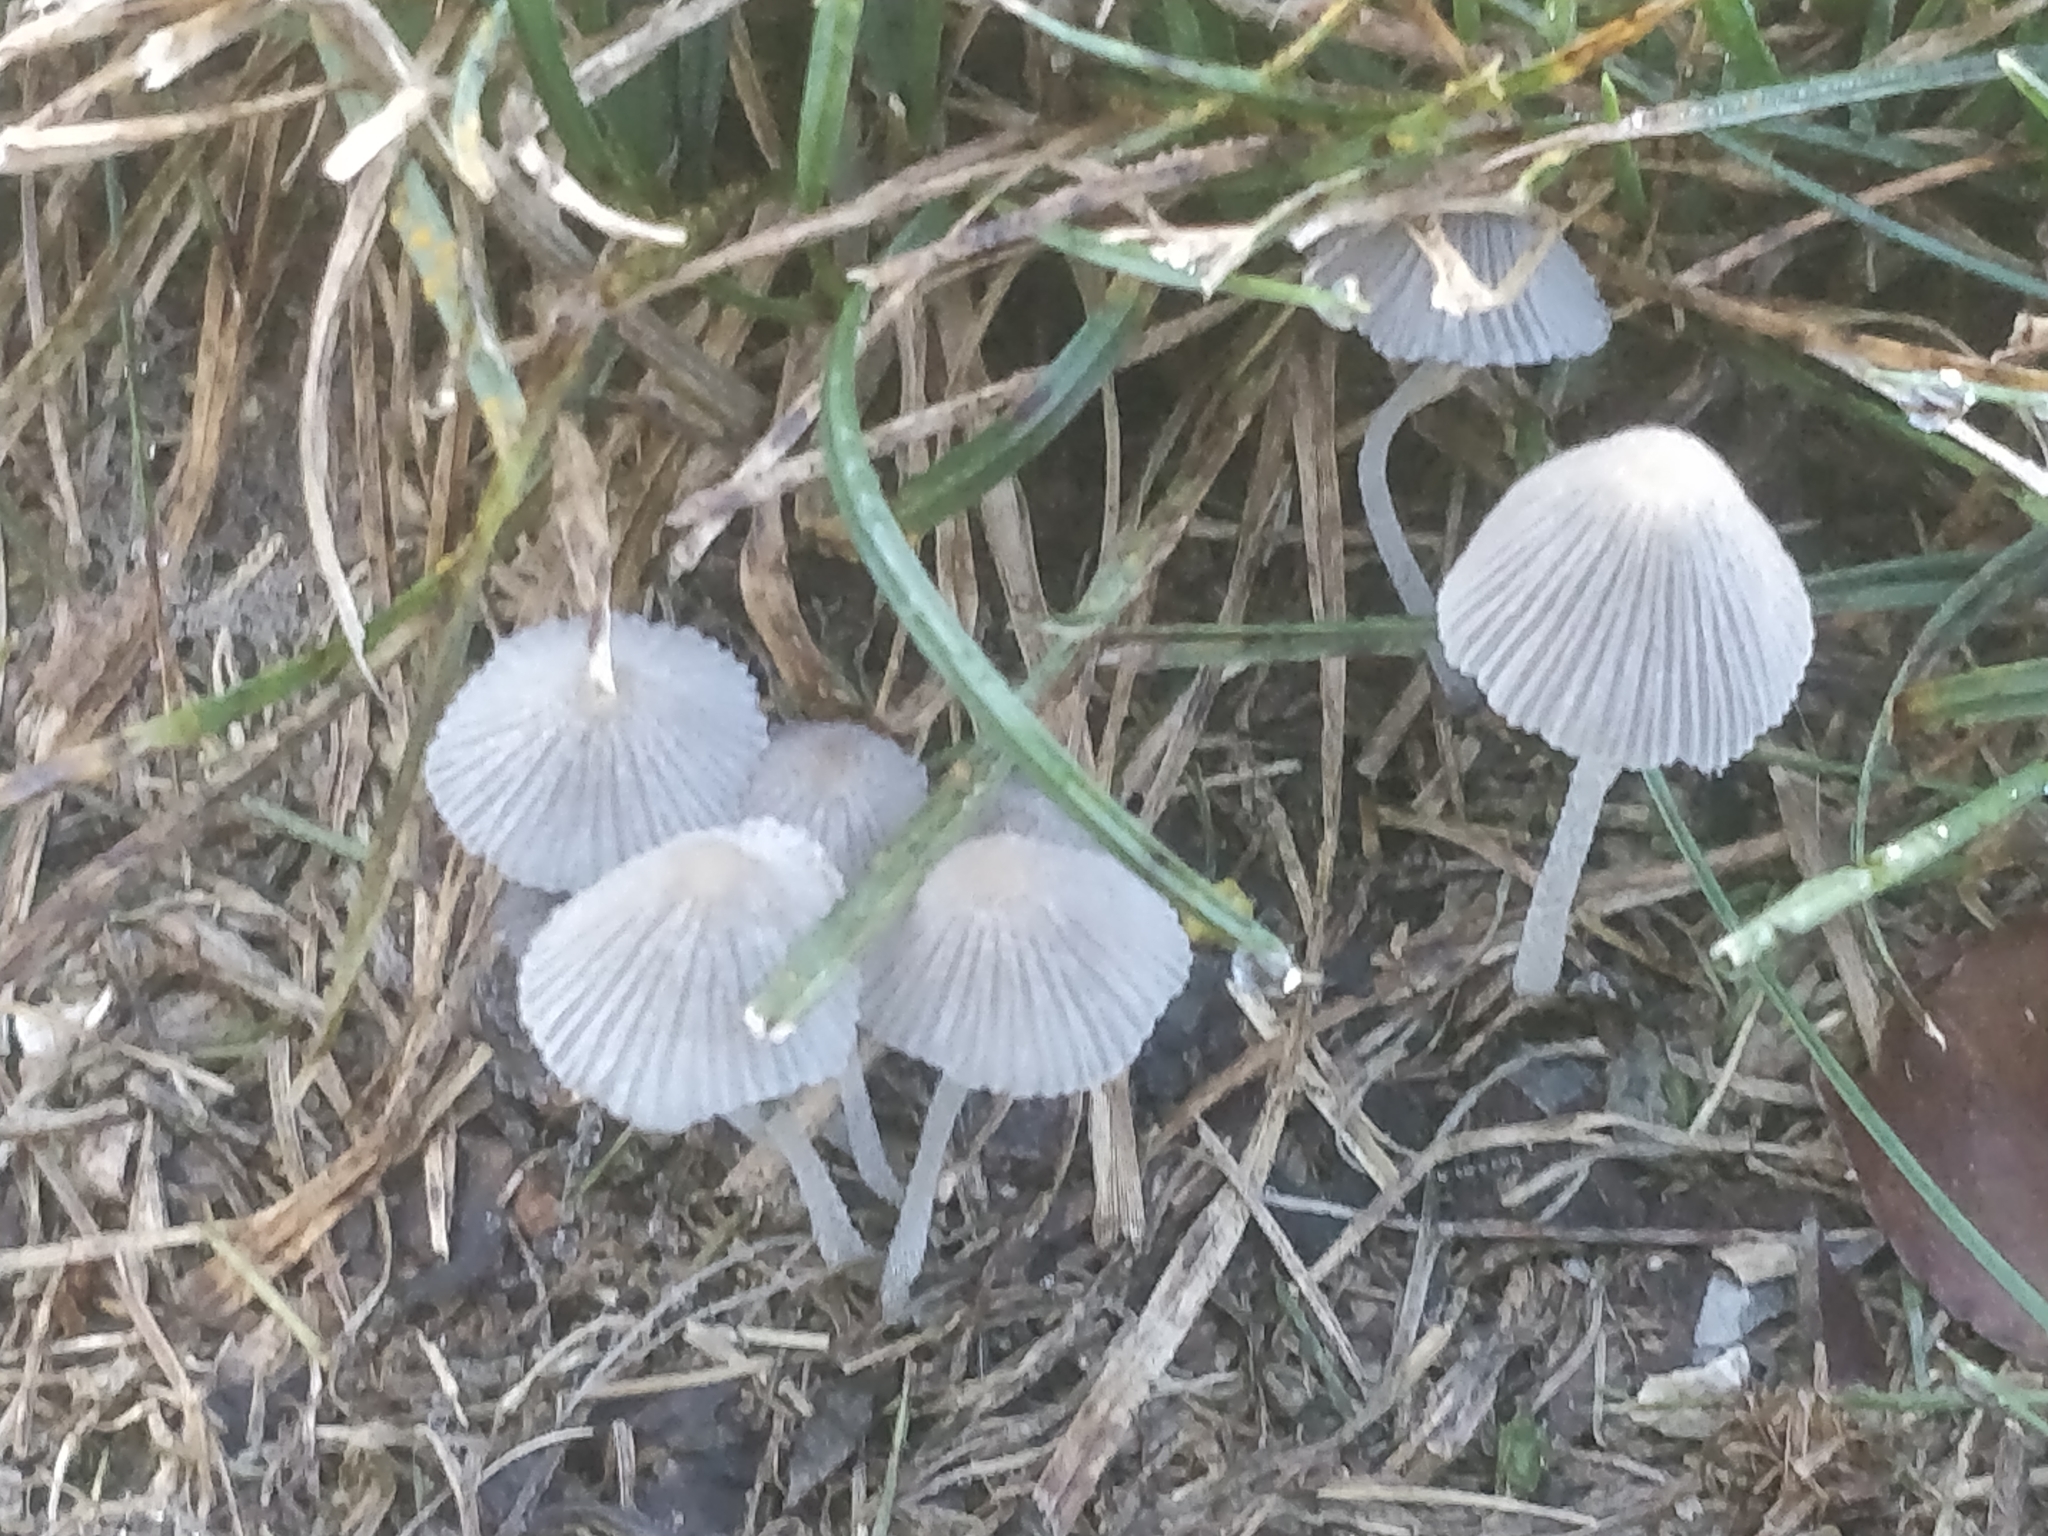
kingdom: Fungi
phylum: Basidiomycota
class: Agaricomycetes
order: Agaricales
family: Psathyrellaceae
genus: Parasola
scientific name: Parasola plicatilis
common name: Pleated inkcap
